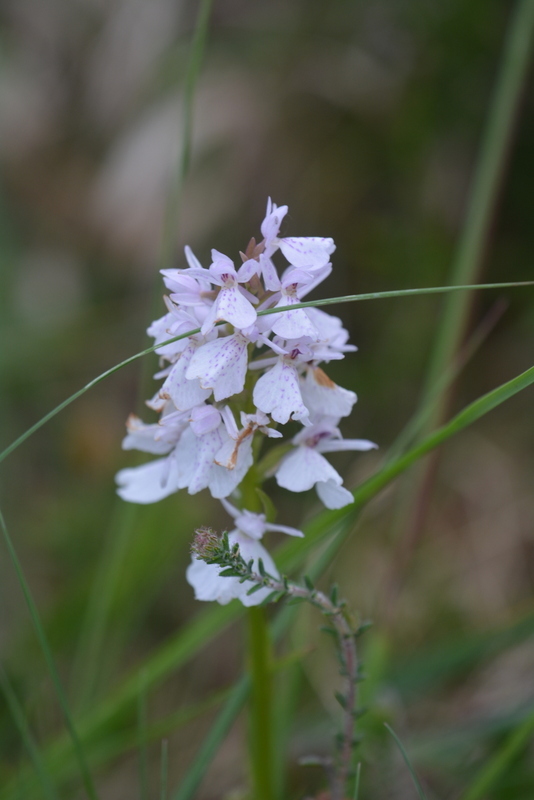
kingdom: Plantae
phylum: Tracheophyta
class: Liliopsida
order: Asparagales
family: Orchidaceae
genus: Dactylorhiza
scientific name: Dactylorhiza maculata
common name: Heath spotted-orchid
